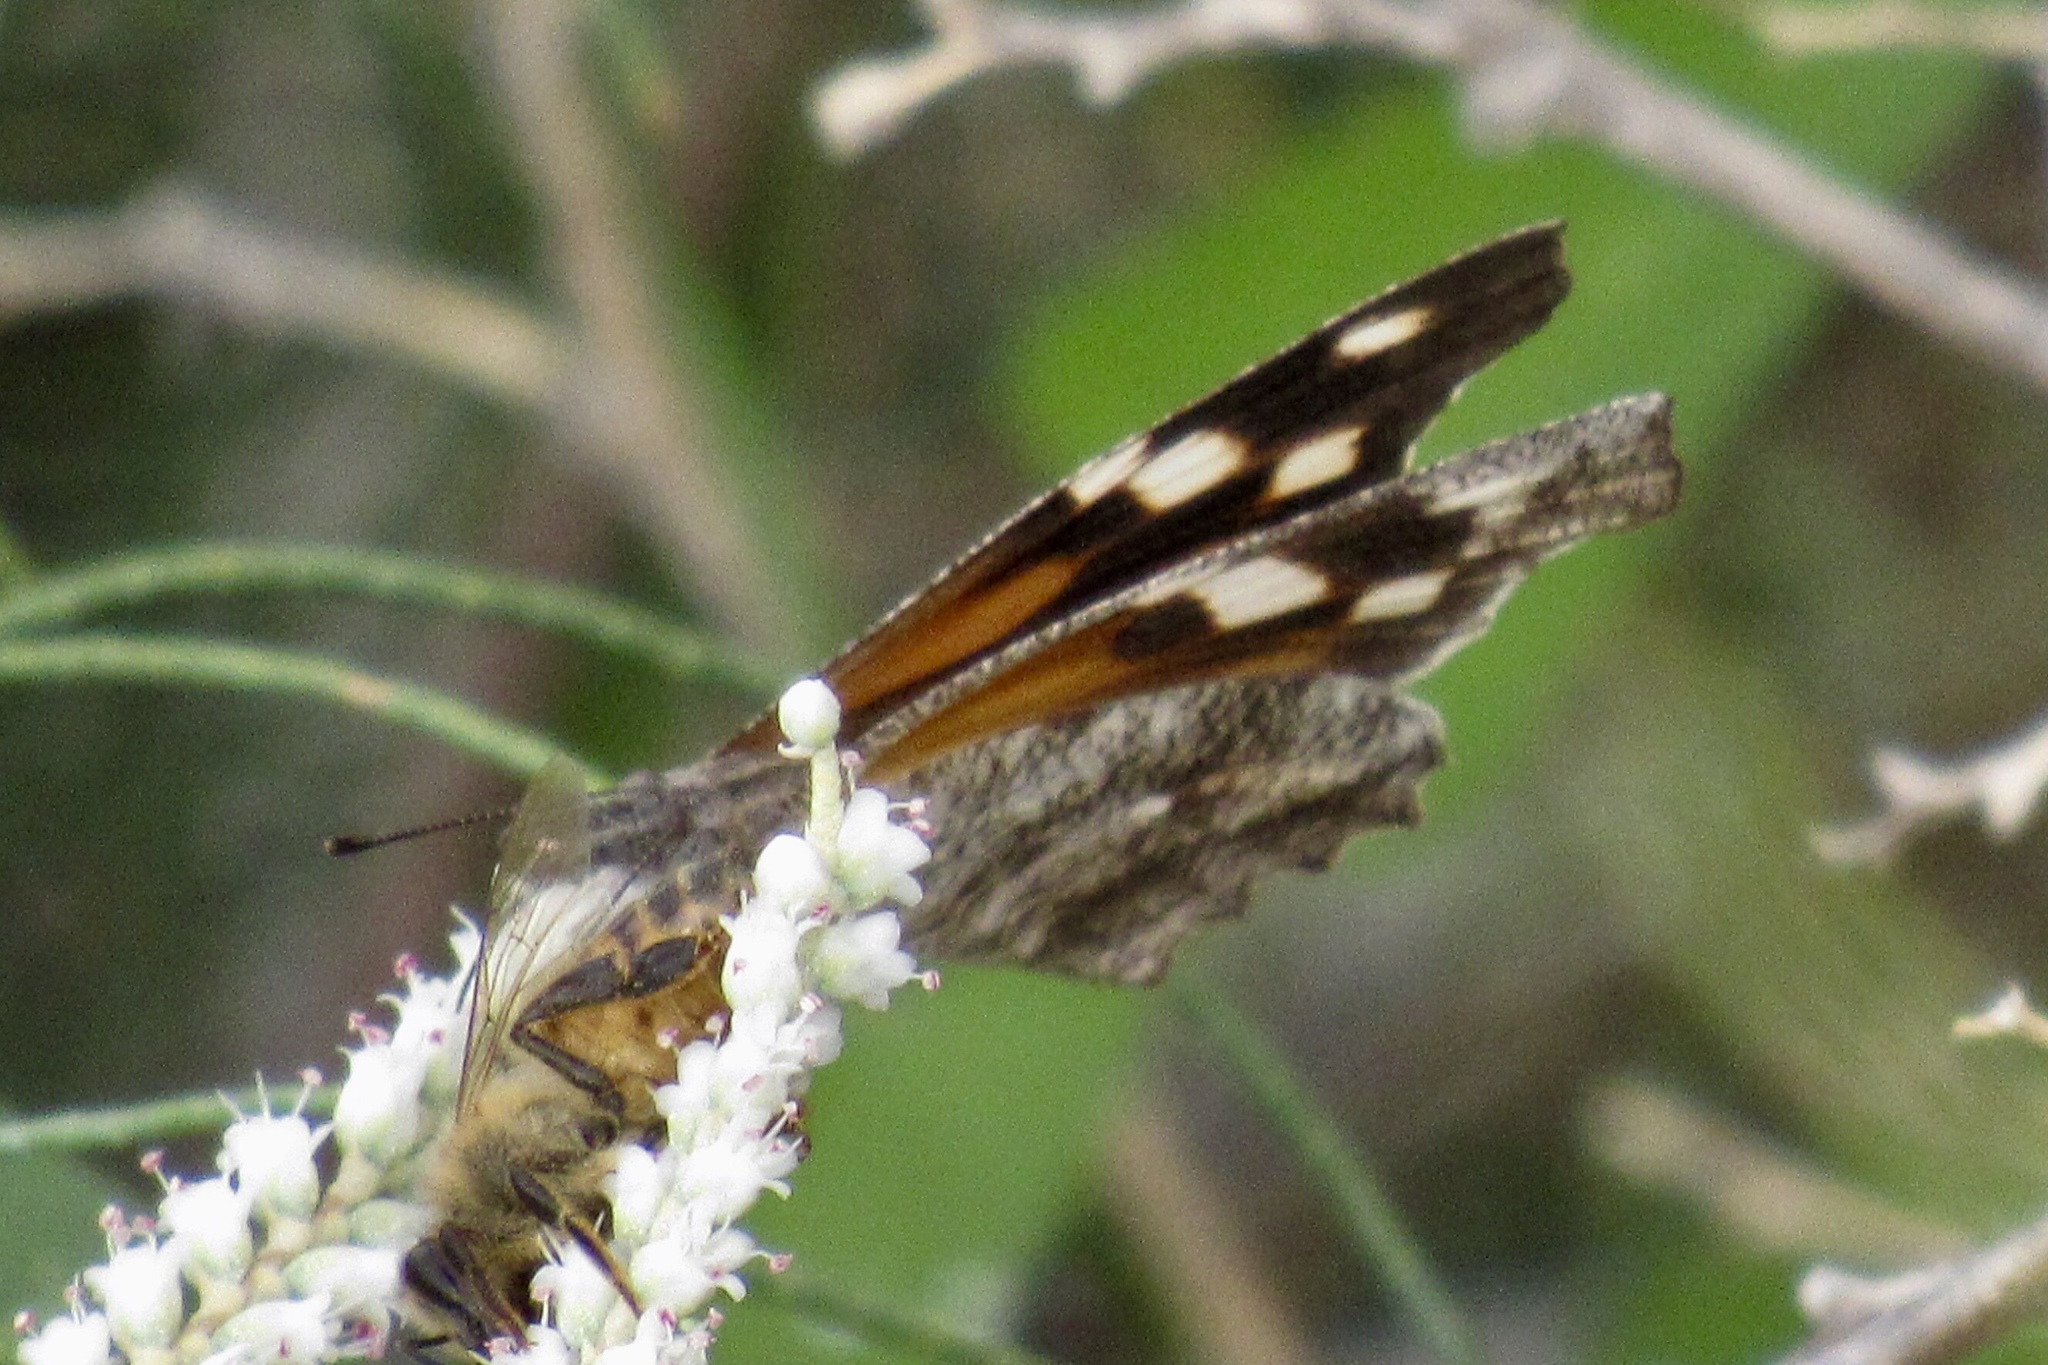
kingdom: Animalia
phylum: Arthropoda
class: Insecta
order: Lepidoptera
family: Nymphalidae
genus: Libytheana
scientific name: Libytheana carinenta
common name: American snout
